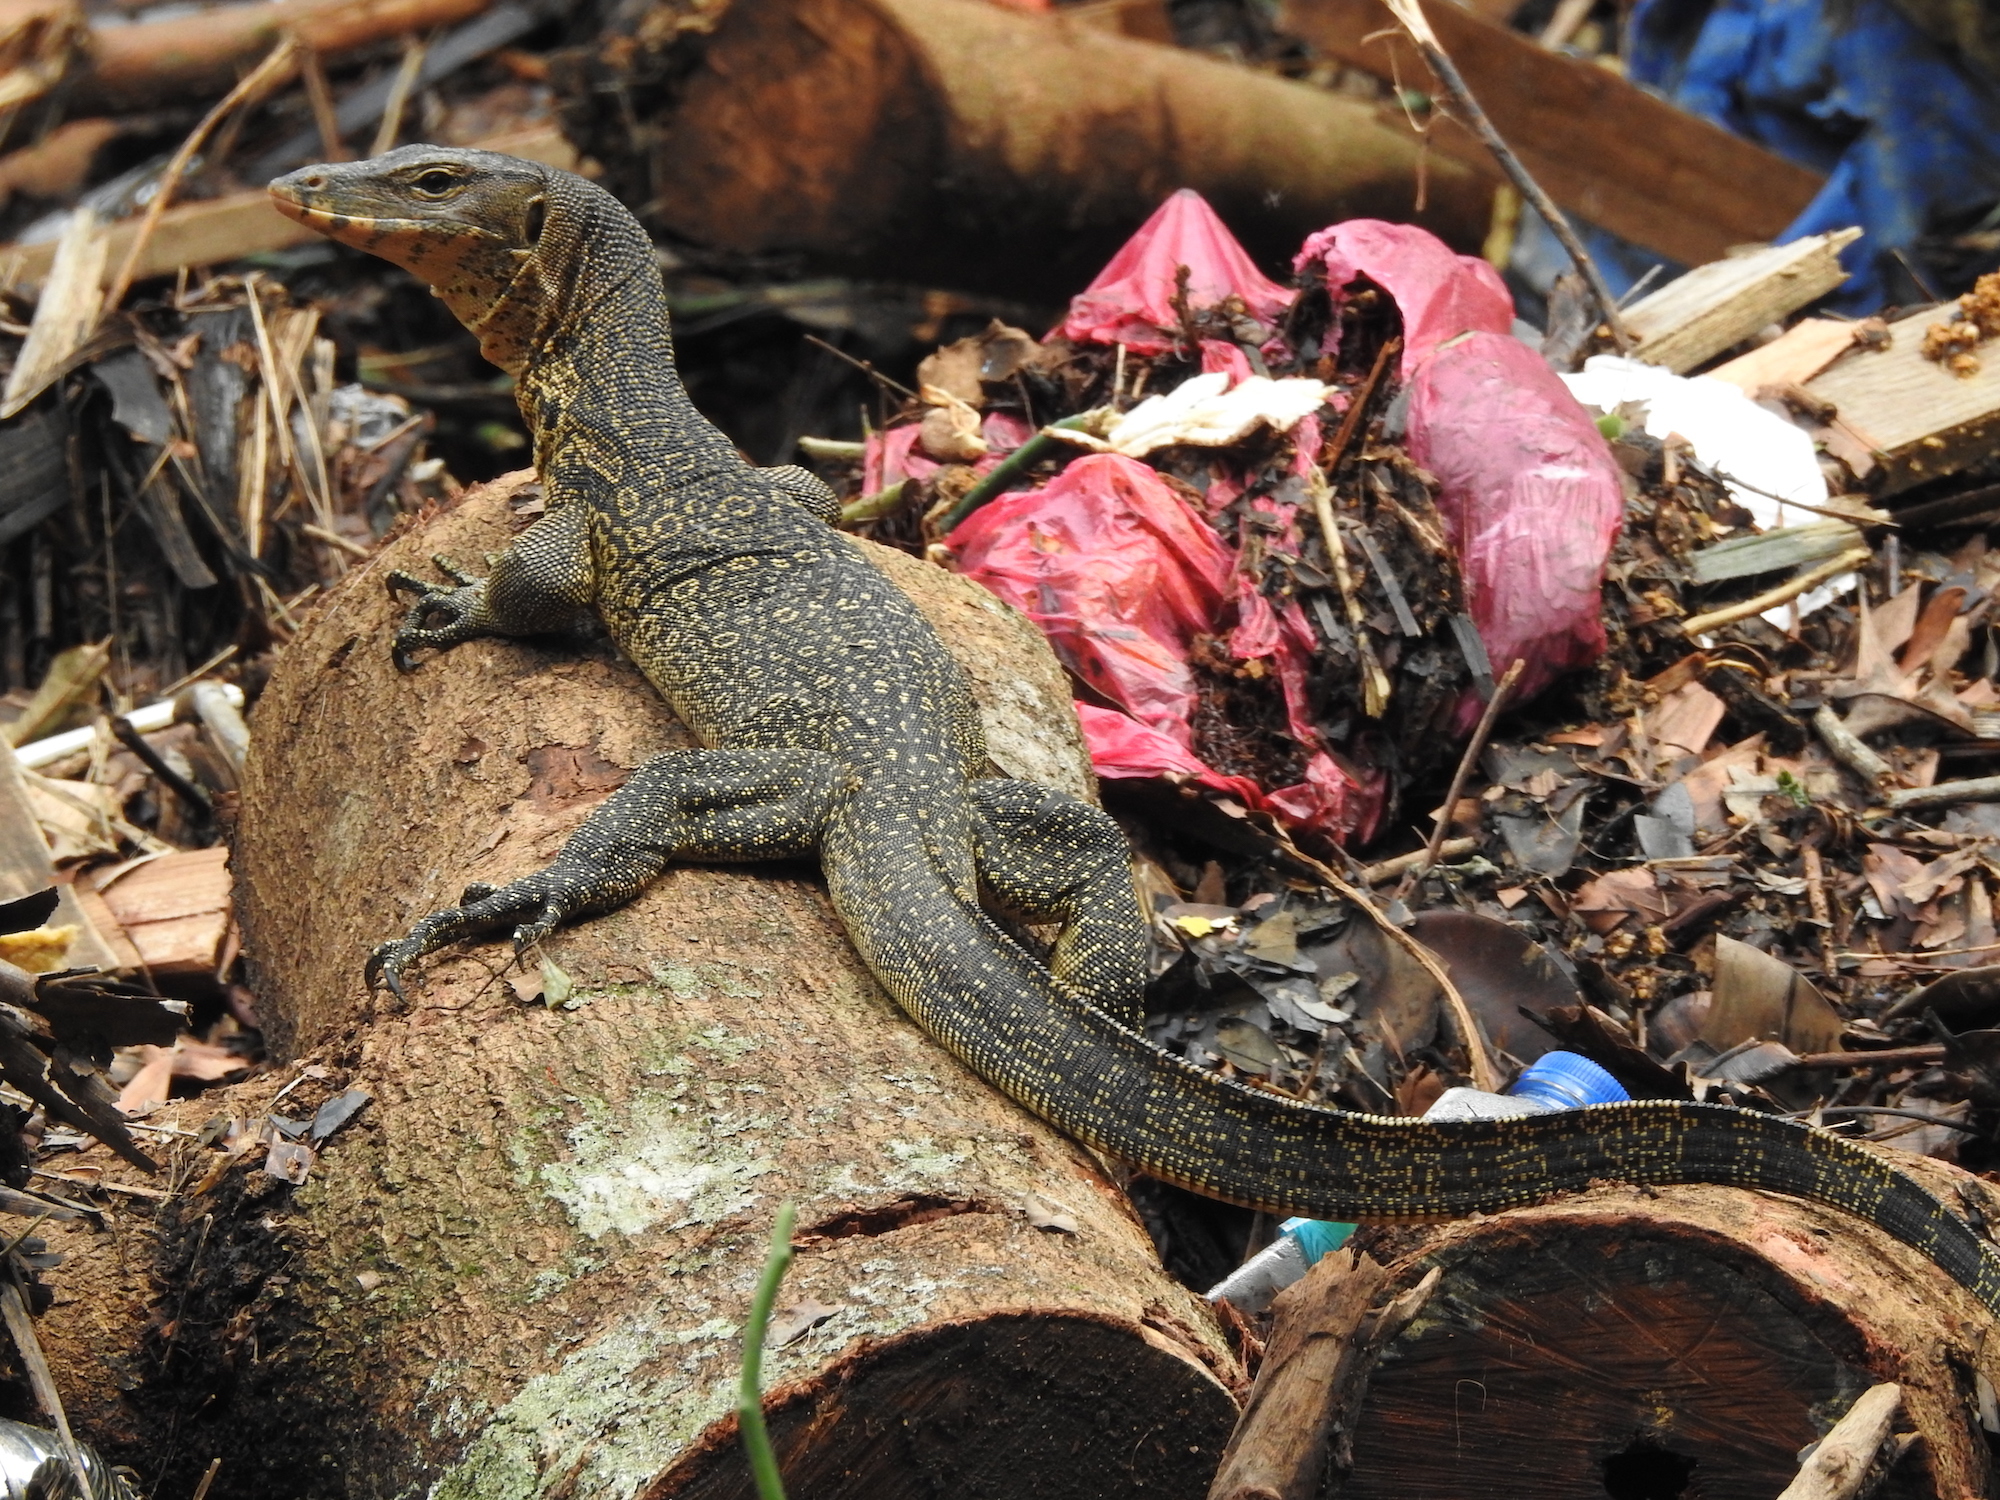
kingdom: Animalia
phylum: Chordata
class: Squamata
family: Varanidae
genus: Varanus
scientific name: Varanus salvator
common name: Common water monitor
